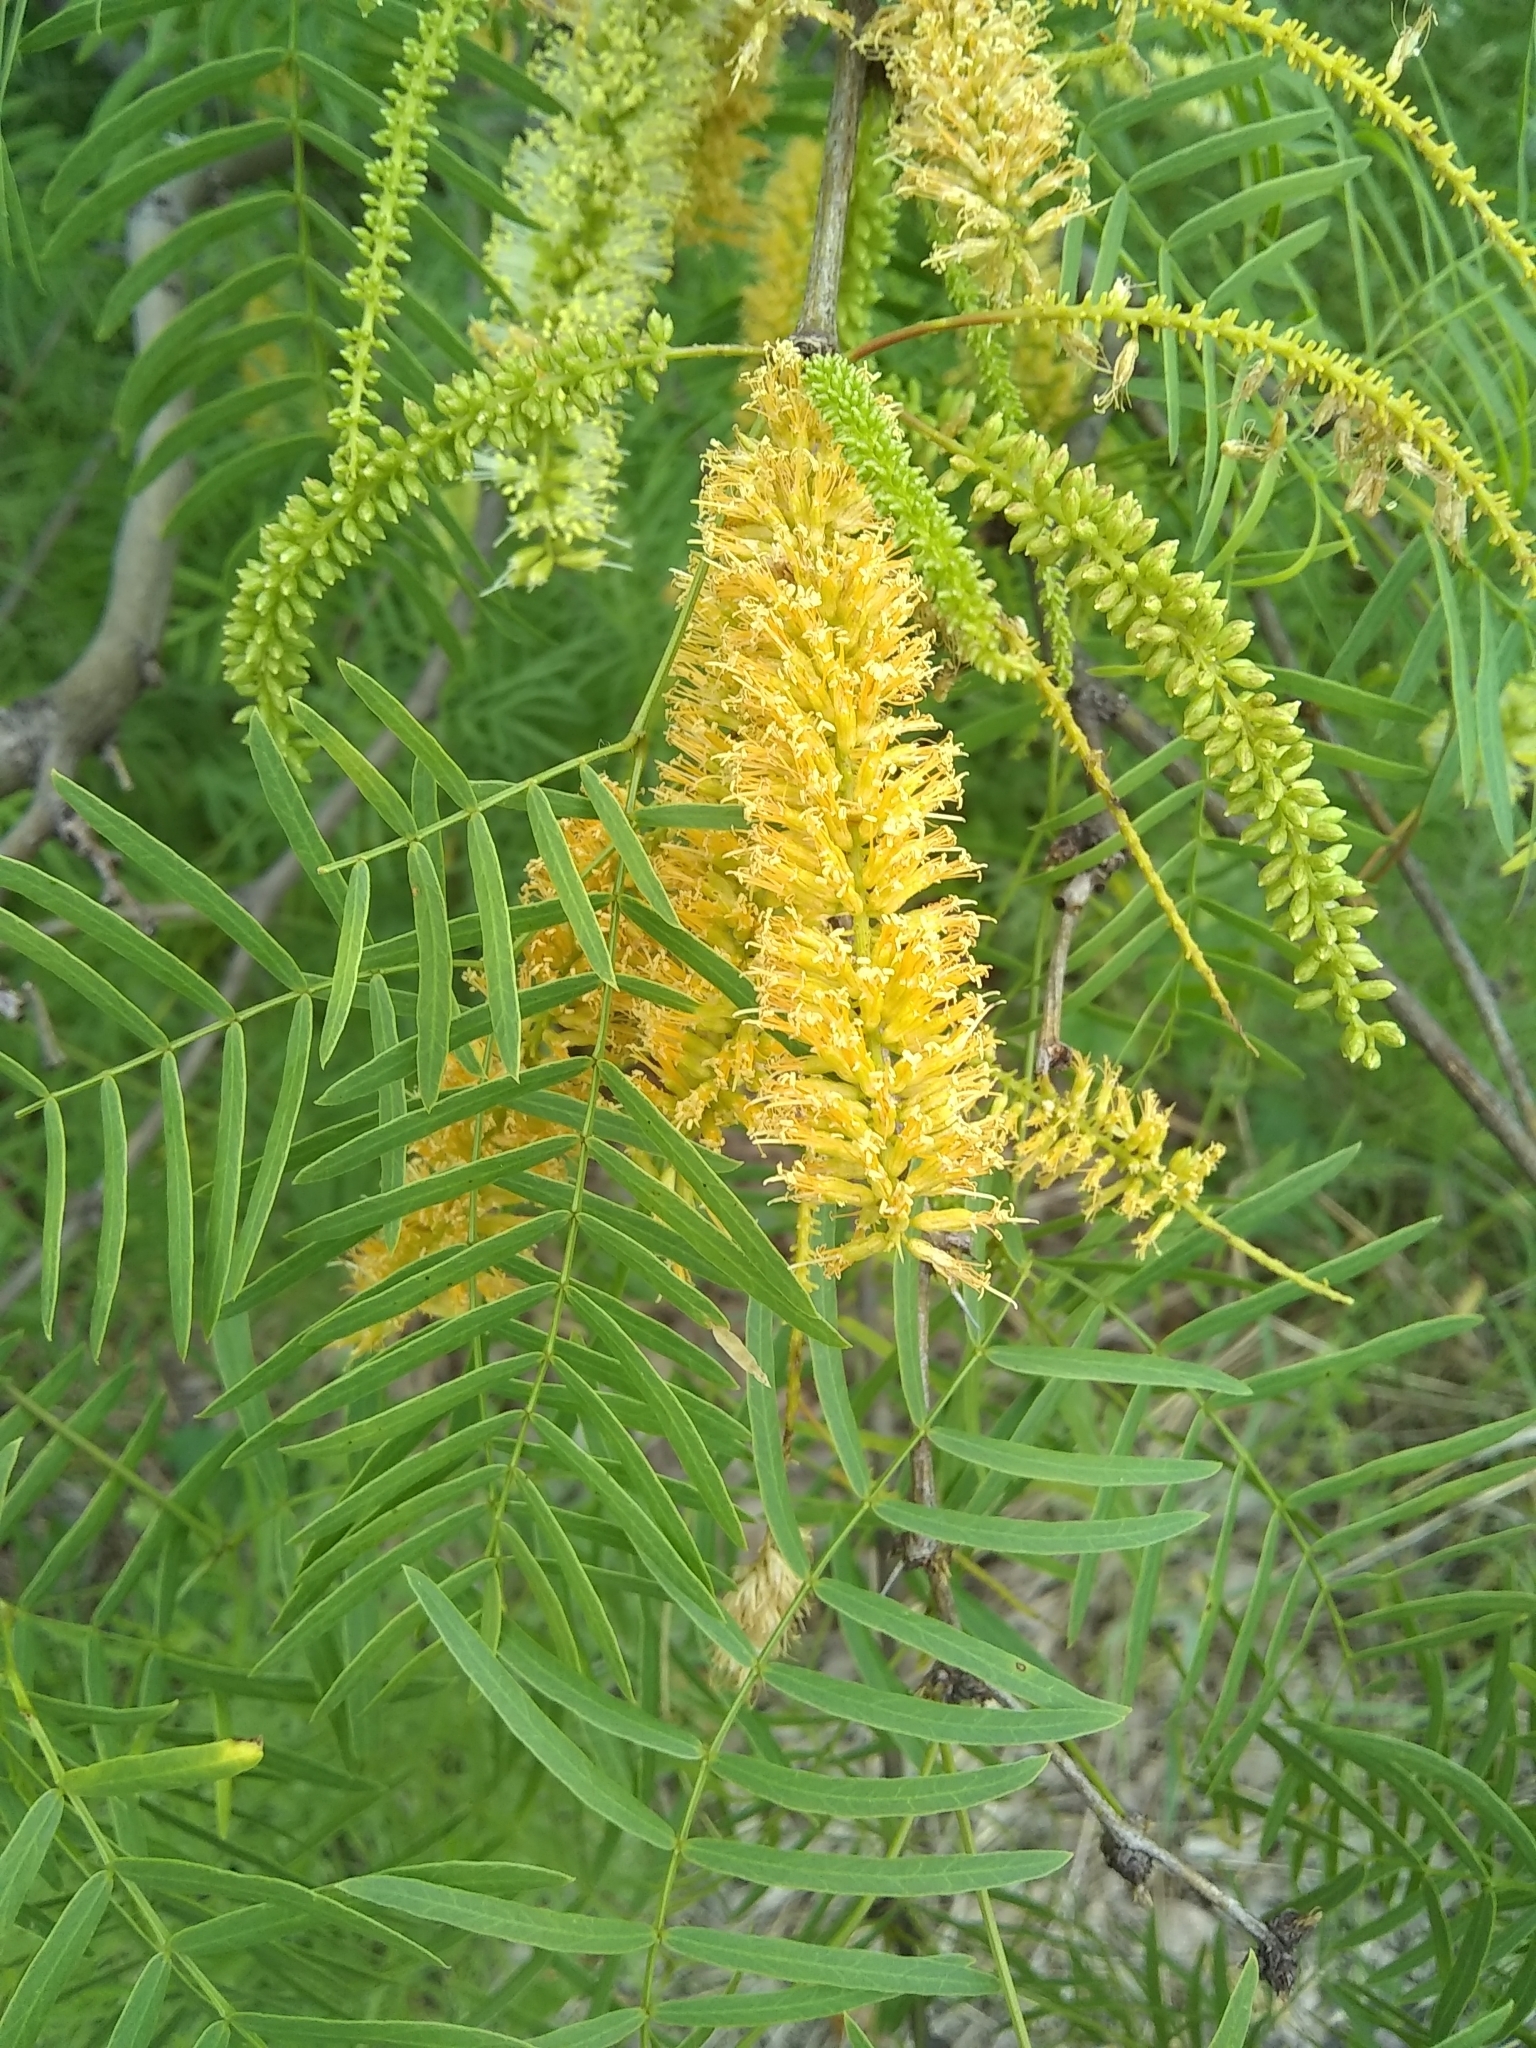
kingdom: Plantae
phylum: Tracheophyta
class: Magnoliopsida
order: Fabales
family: Fabaceae
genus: Prosopis
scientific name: Prosopis glandulosa
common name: Honey mesquite
